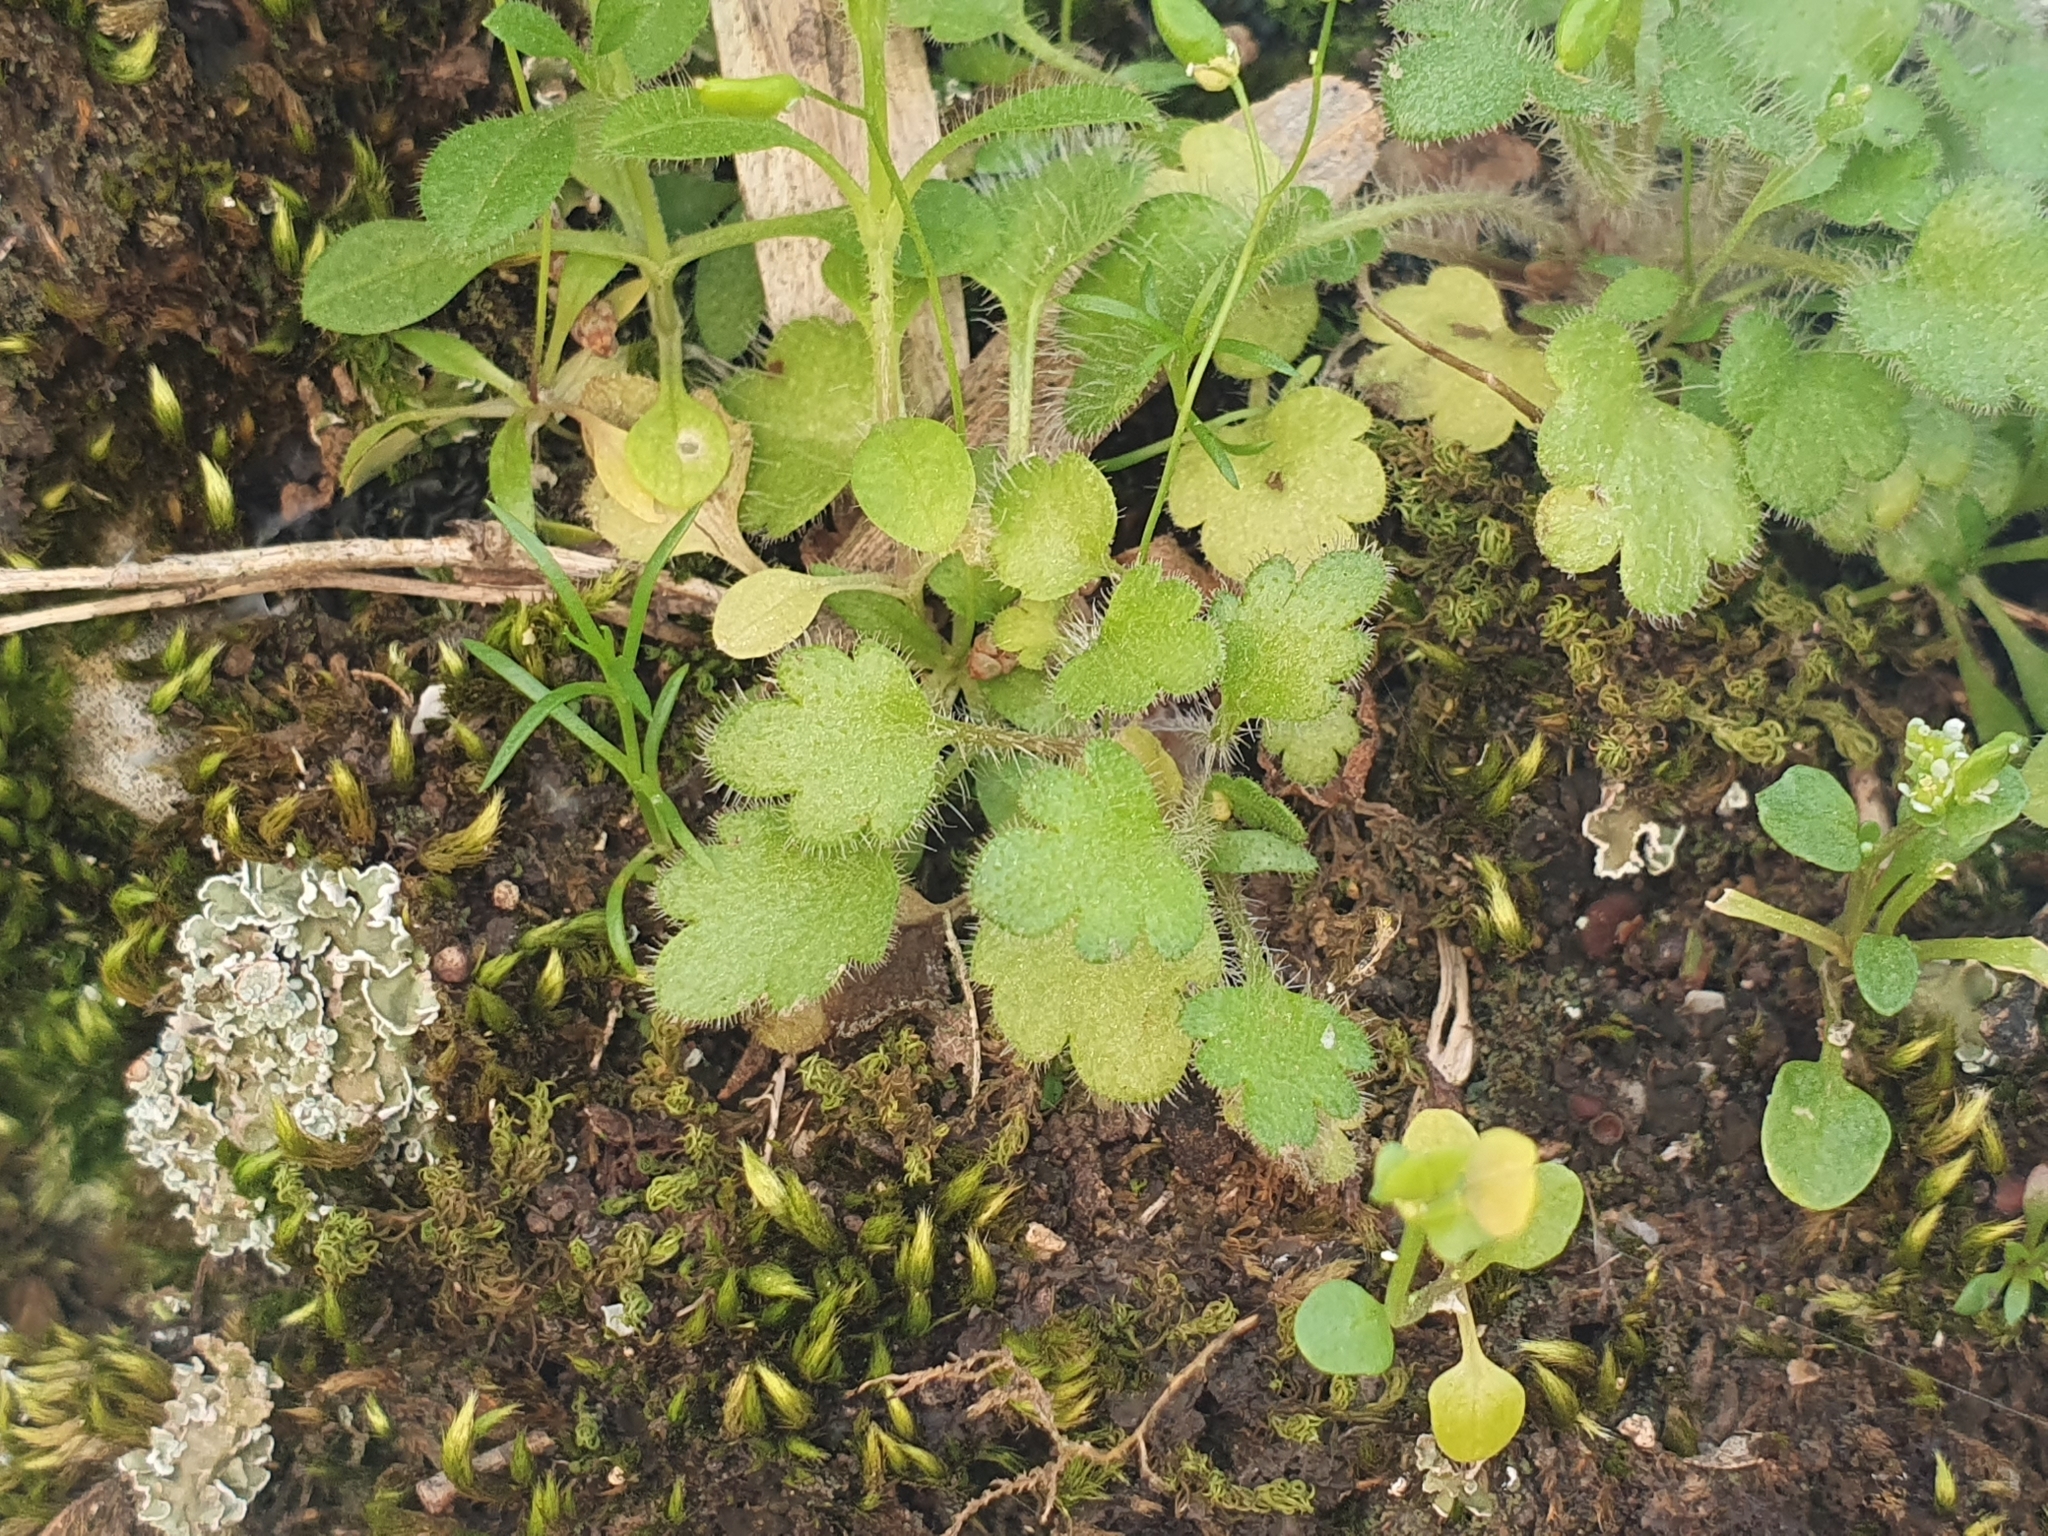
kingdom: Plantae
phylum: Tracheophyta
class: Magnoliopsida
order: Saxifragales
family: Saxifragaceae
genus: Saxifraga
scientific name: Saxifraga carpetana
